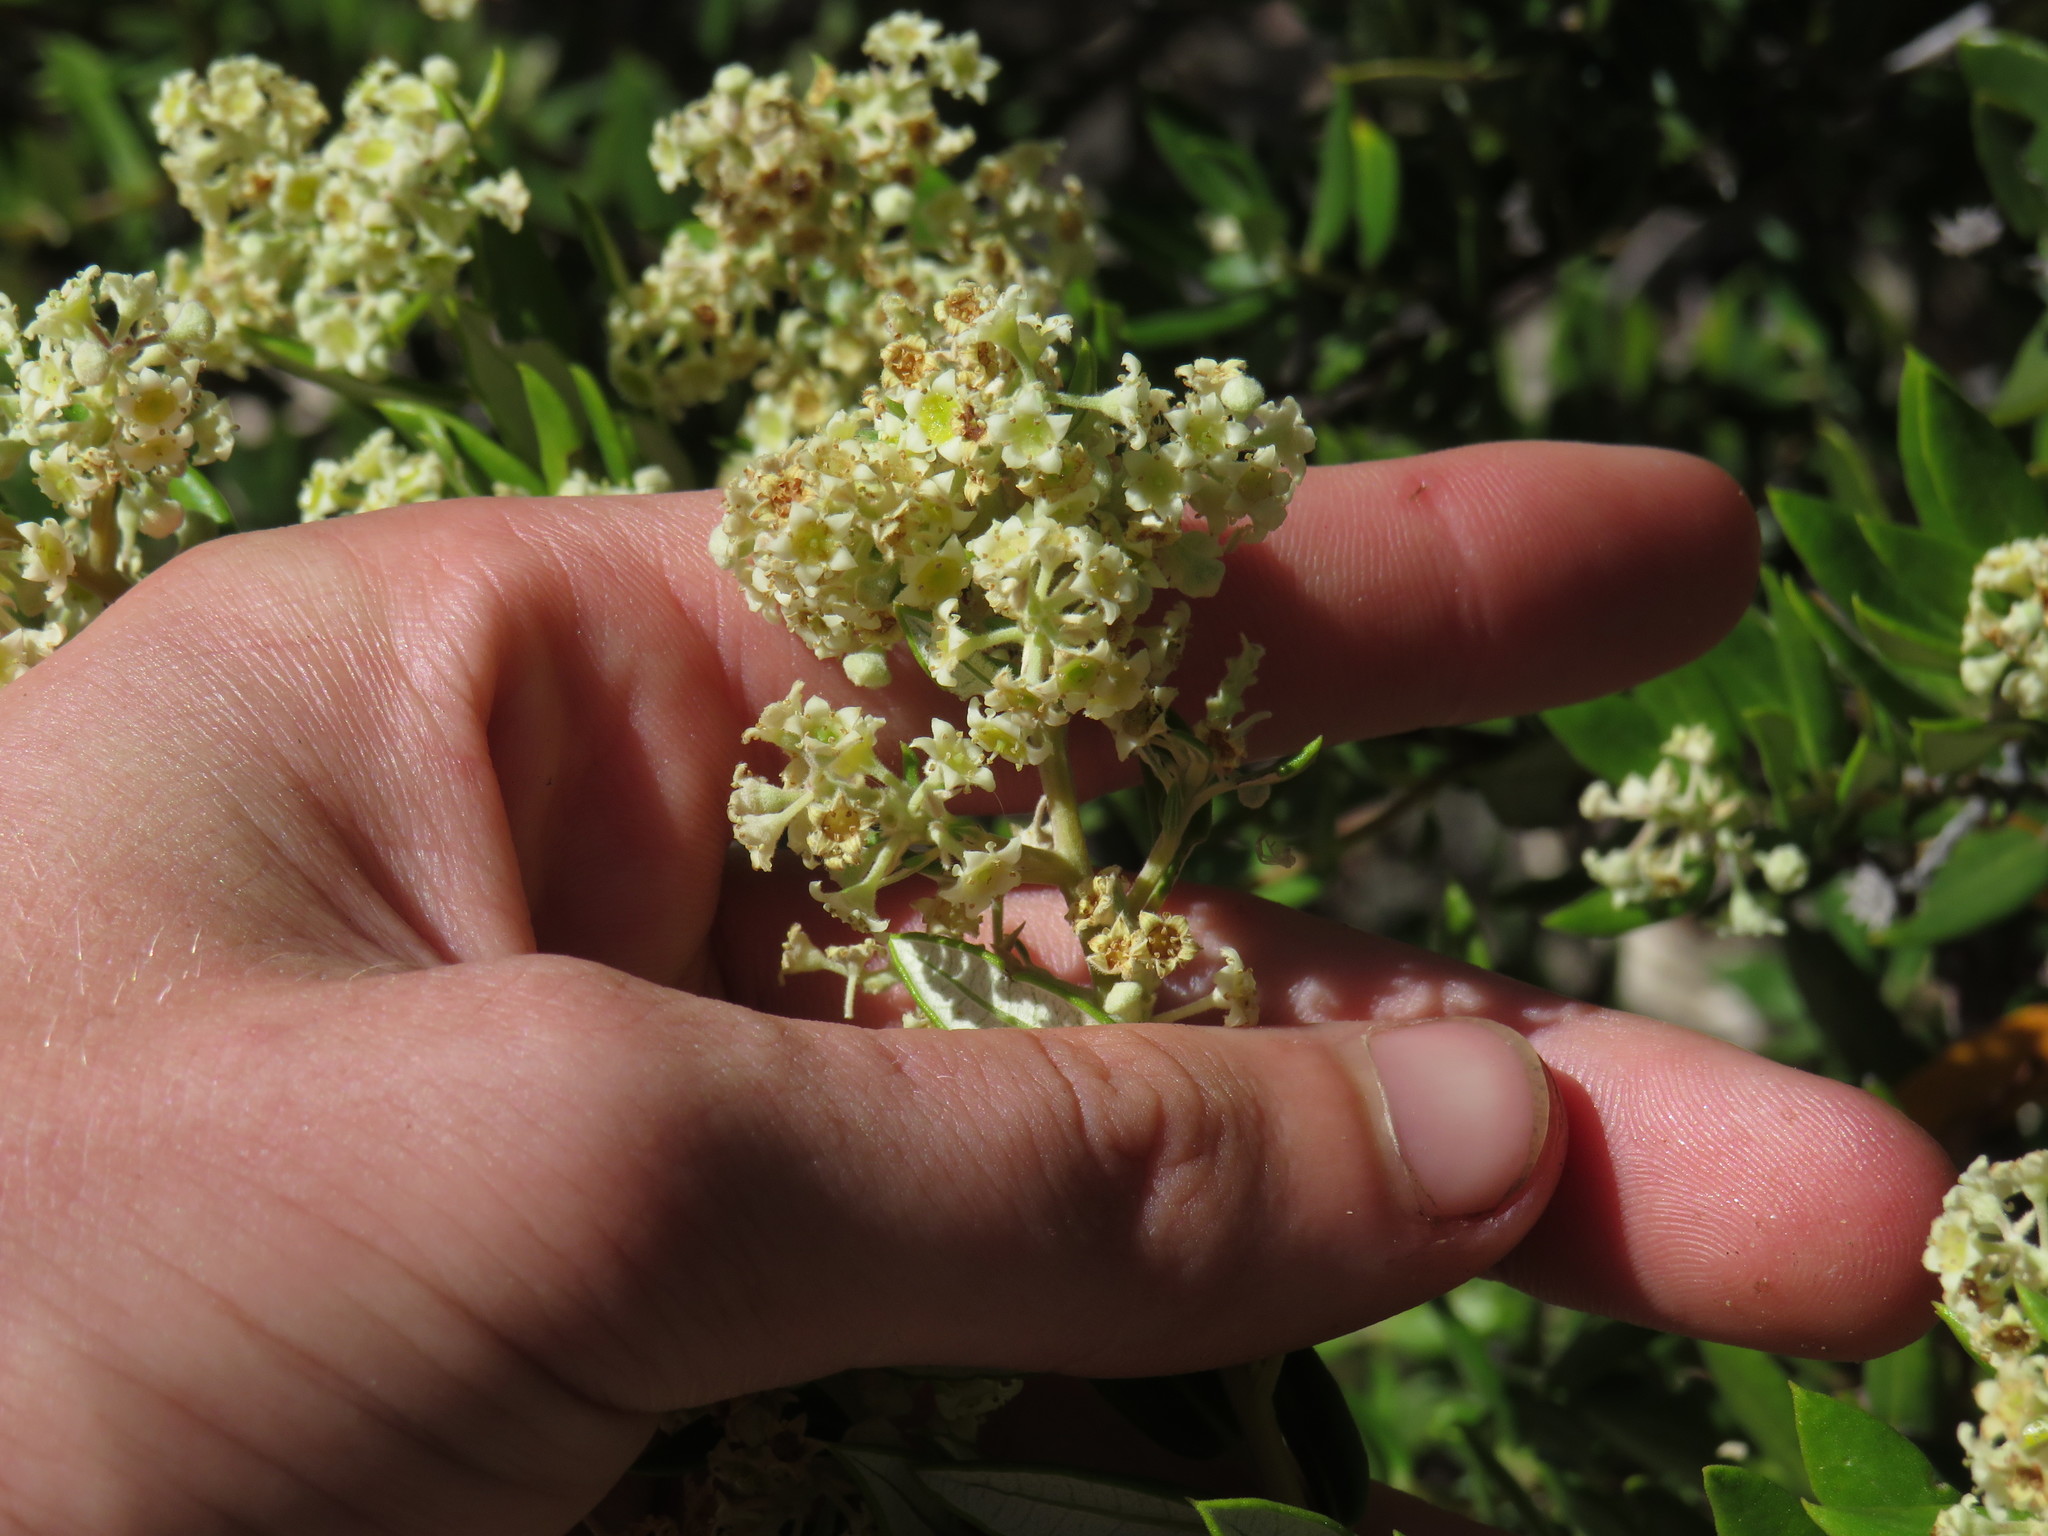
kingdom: Plantae
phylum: Tracheophyta
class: Magnoliopsida
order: Rosales
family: Rhamnaceae
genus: Phylica
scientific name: Phylica oleifolia
